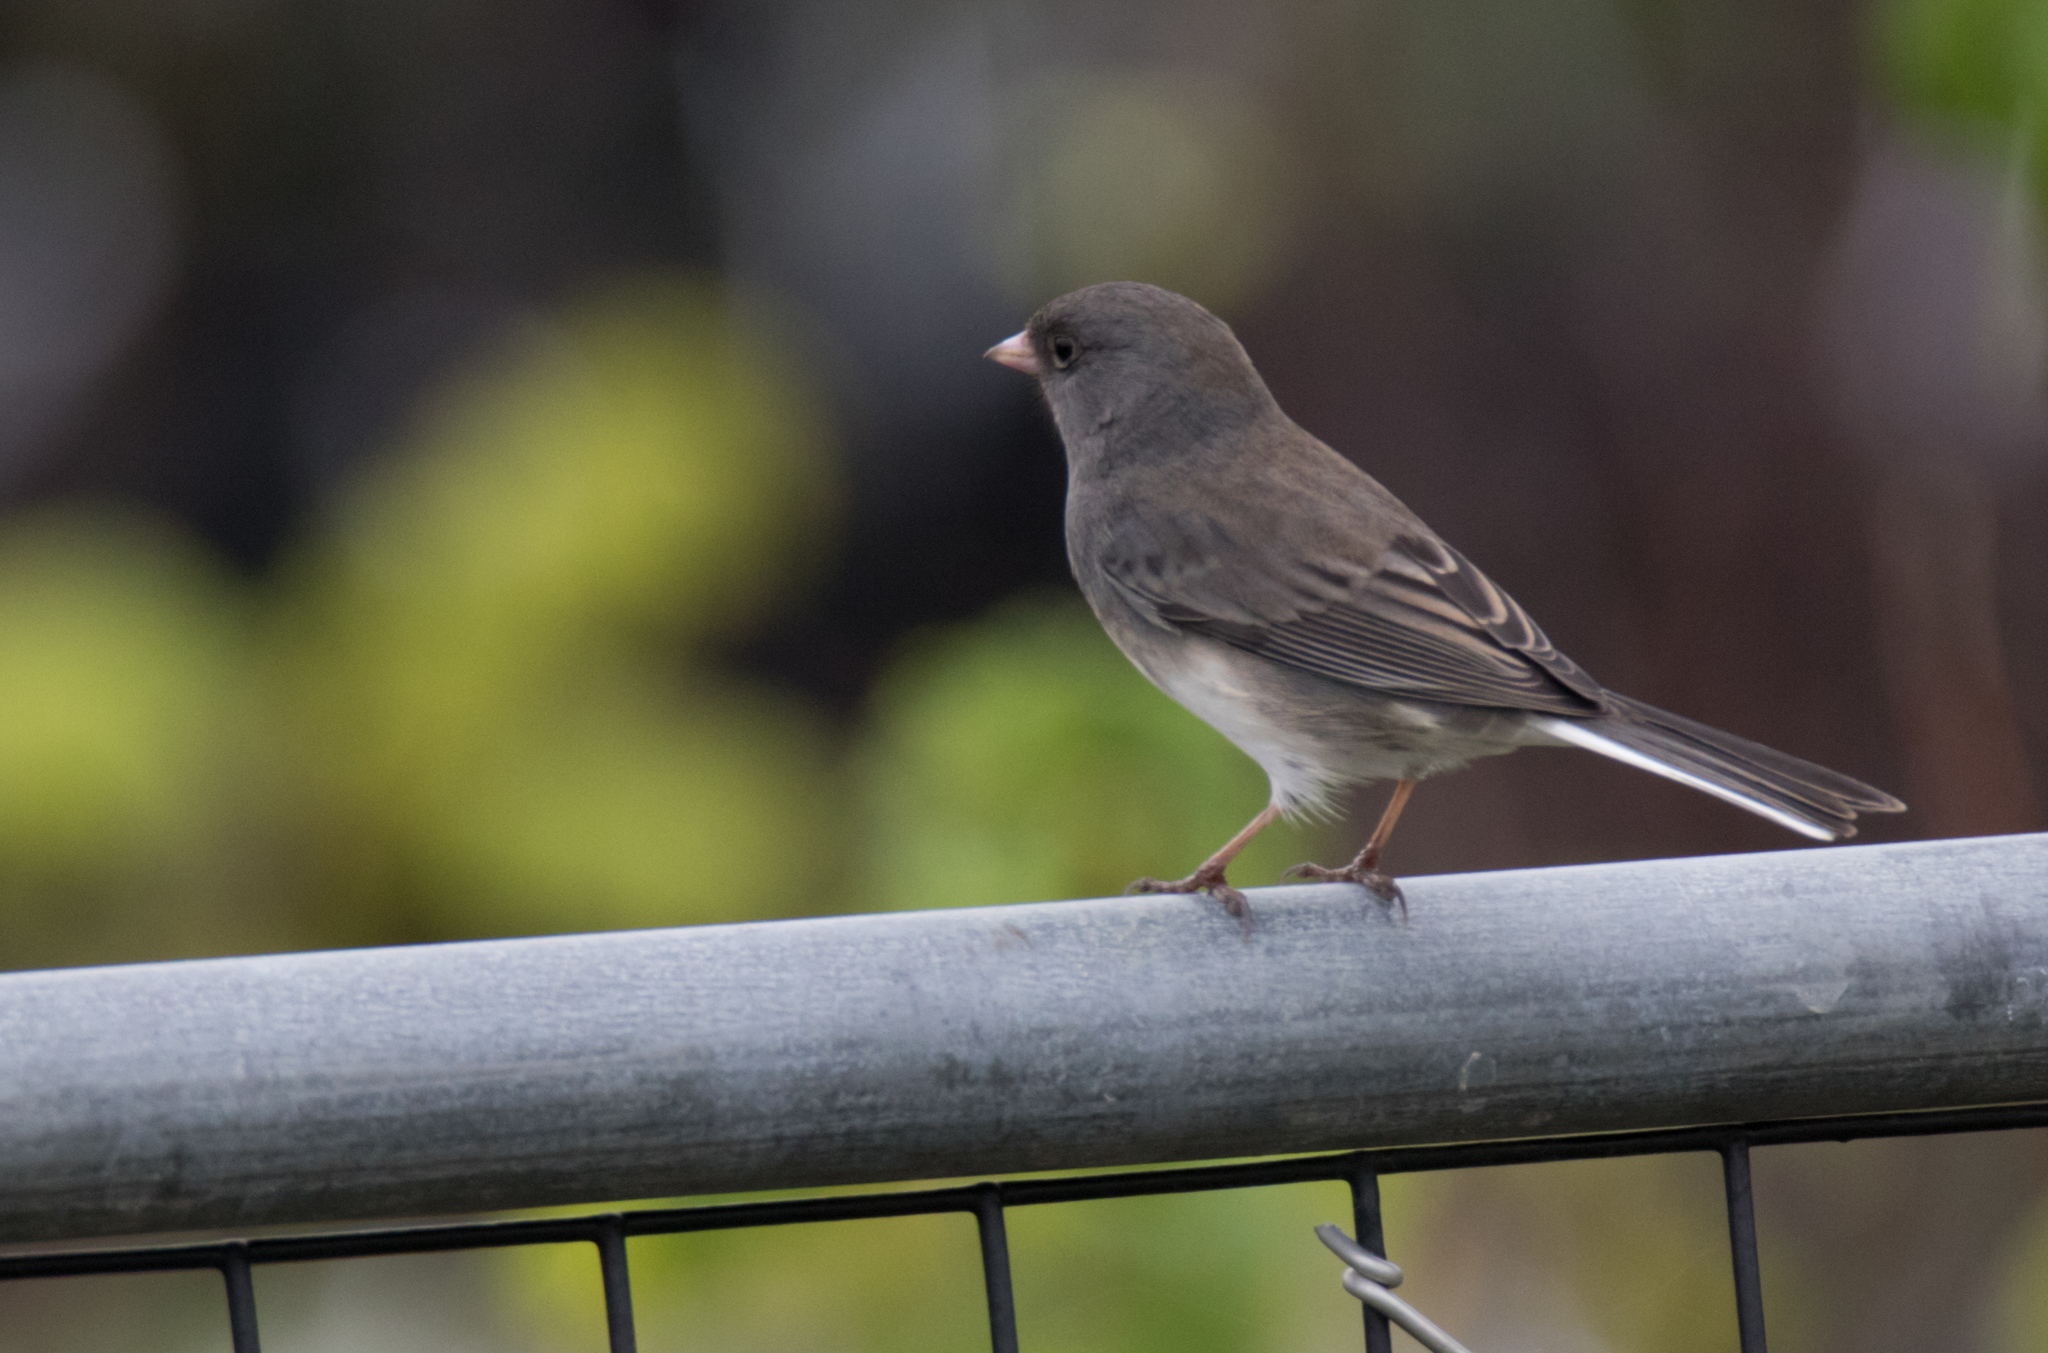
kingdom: Animalia
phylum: Chordata
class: Aves
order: Passeriformes
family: Passerellidae
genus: Junco
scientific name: Junco hyemalis
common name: Dark-eyed junco
